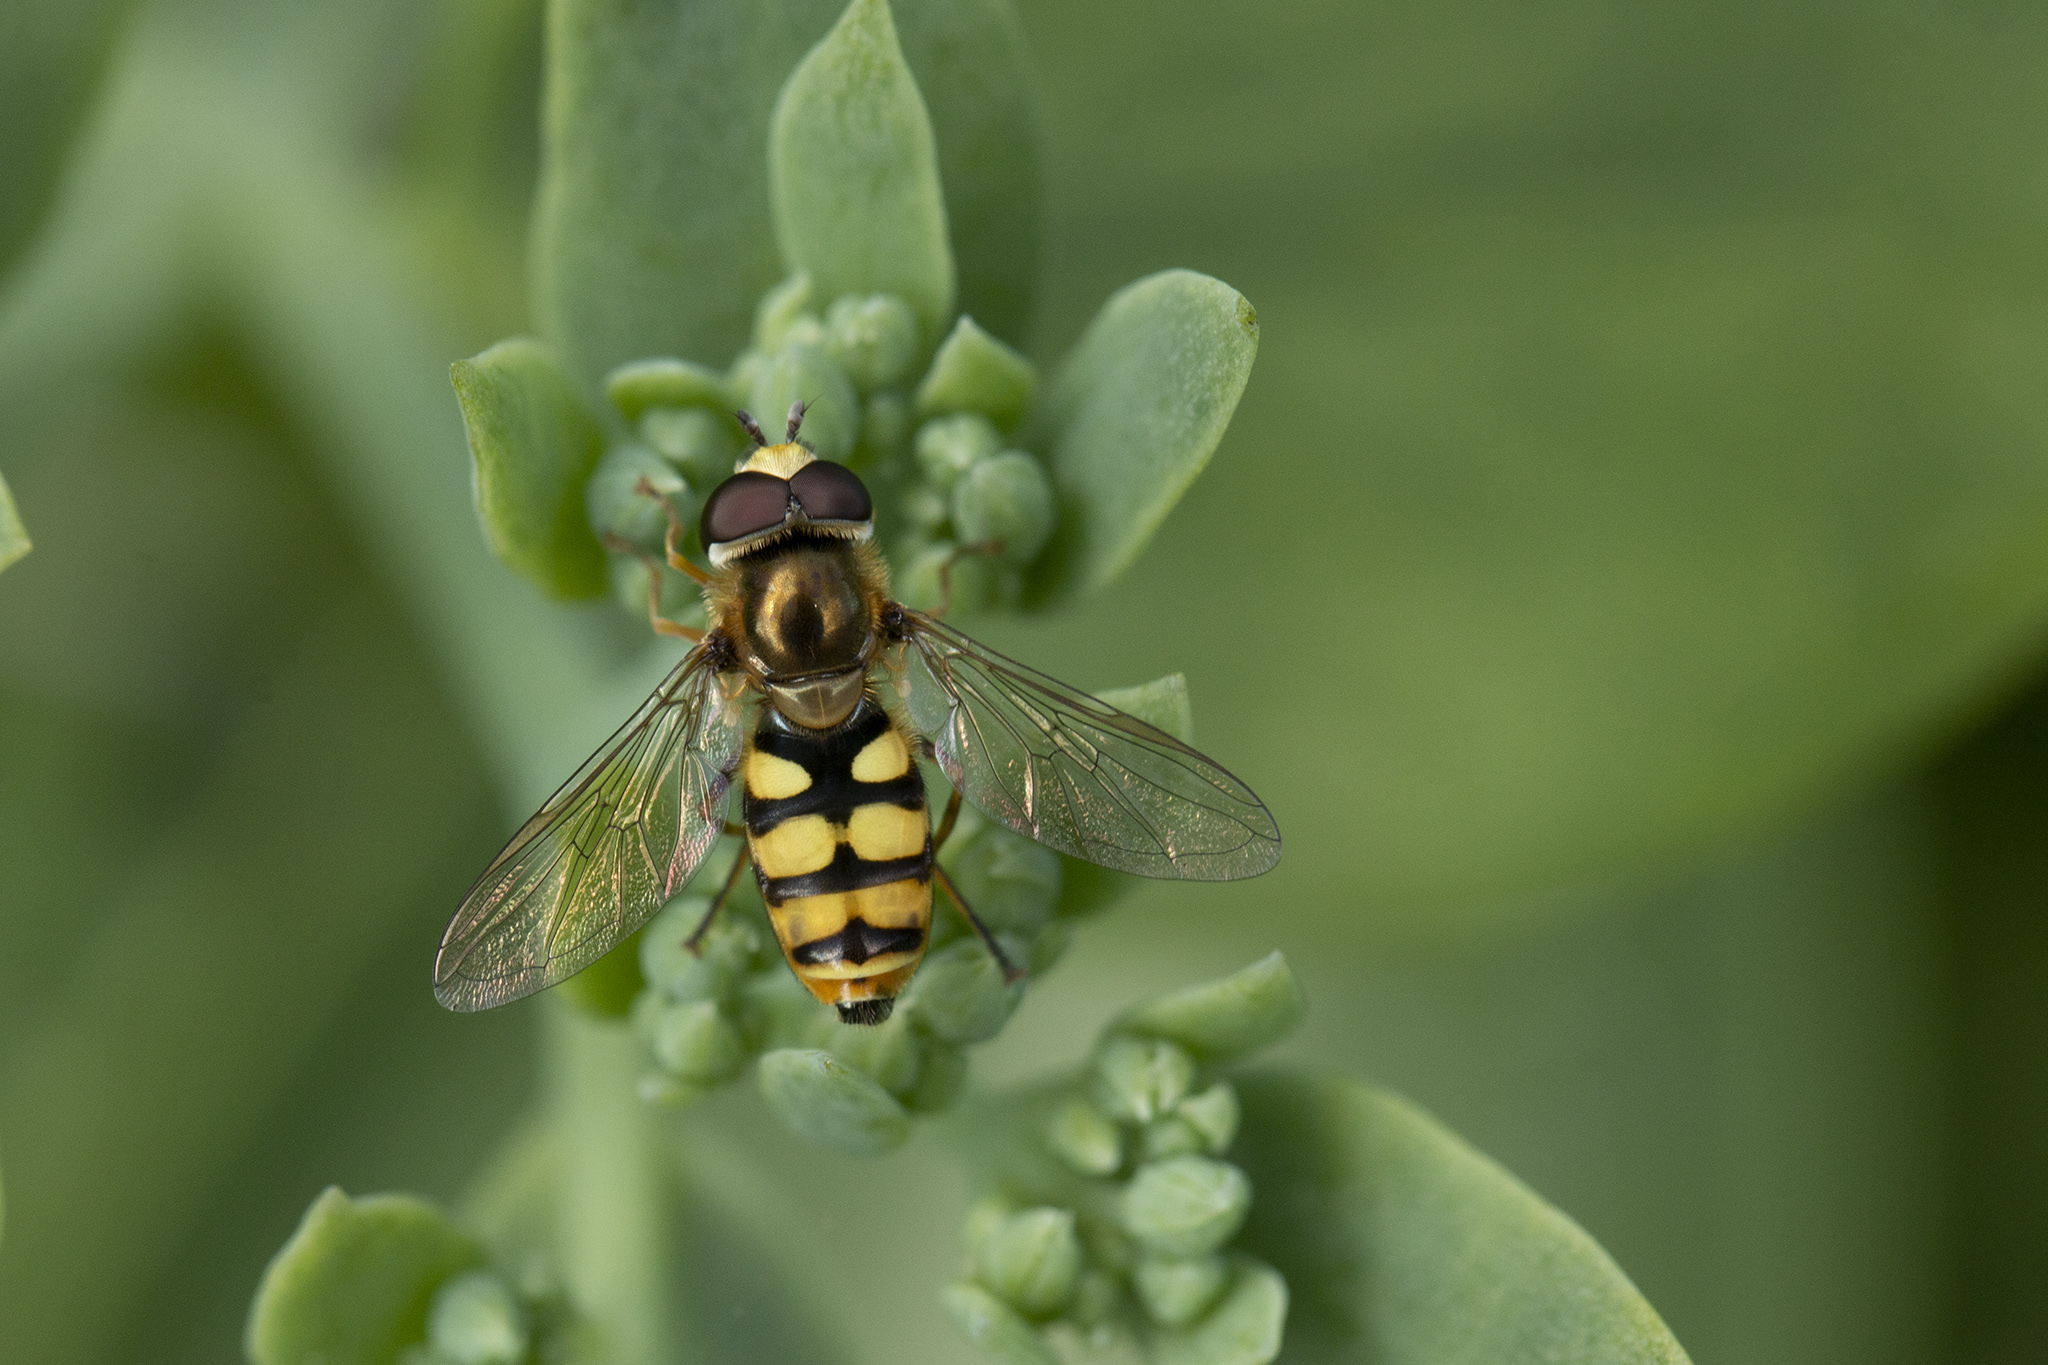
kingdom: Animalia
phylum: Arthropoda
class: Insecta
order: Diptera
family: Syrphidae
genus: Eupeodes
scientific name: Eupeodes corollae
